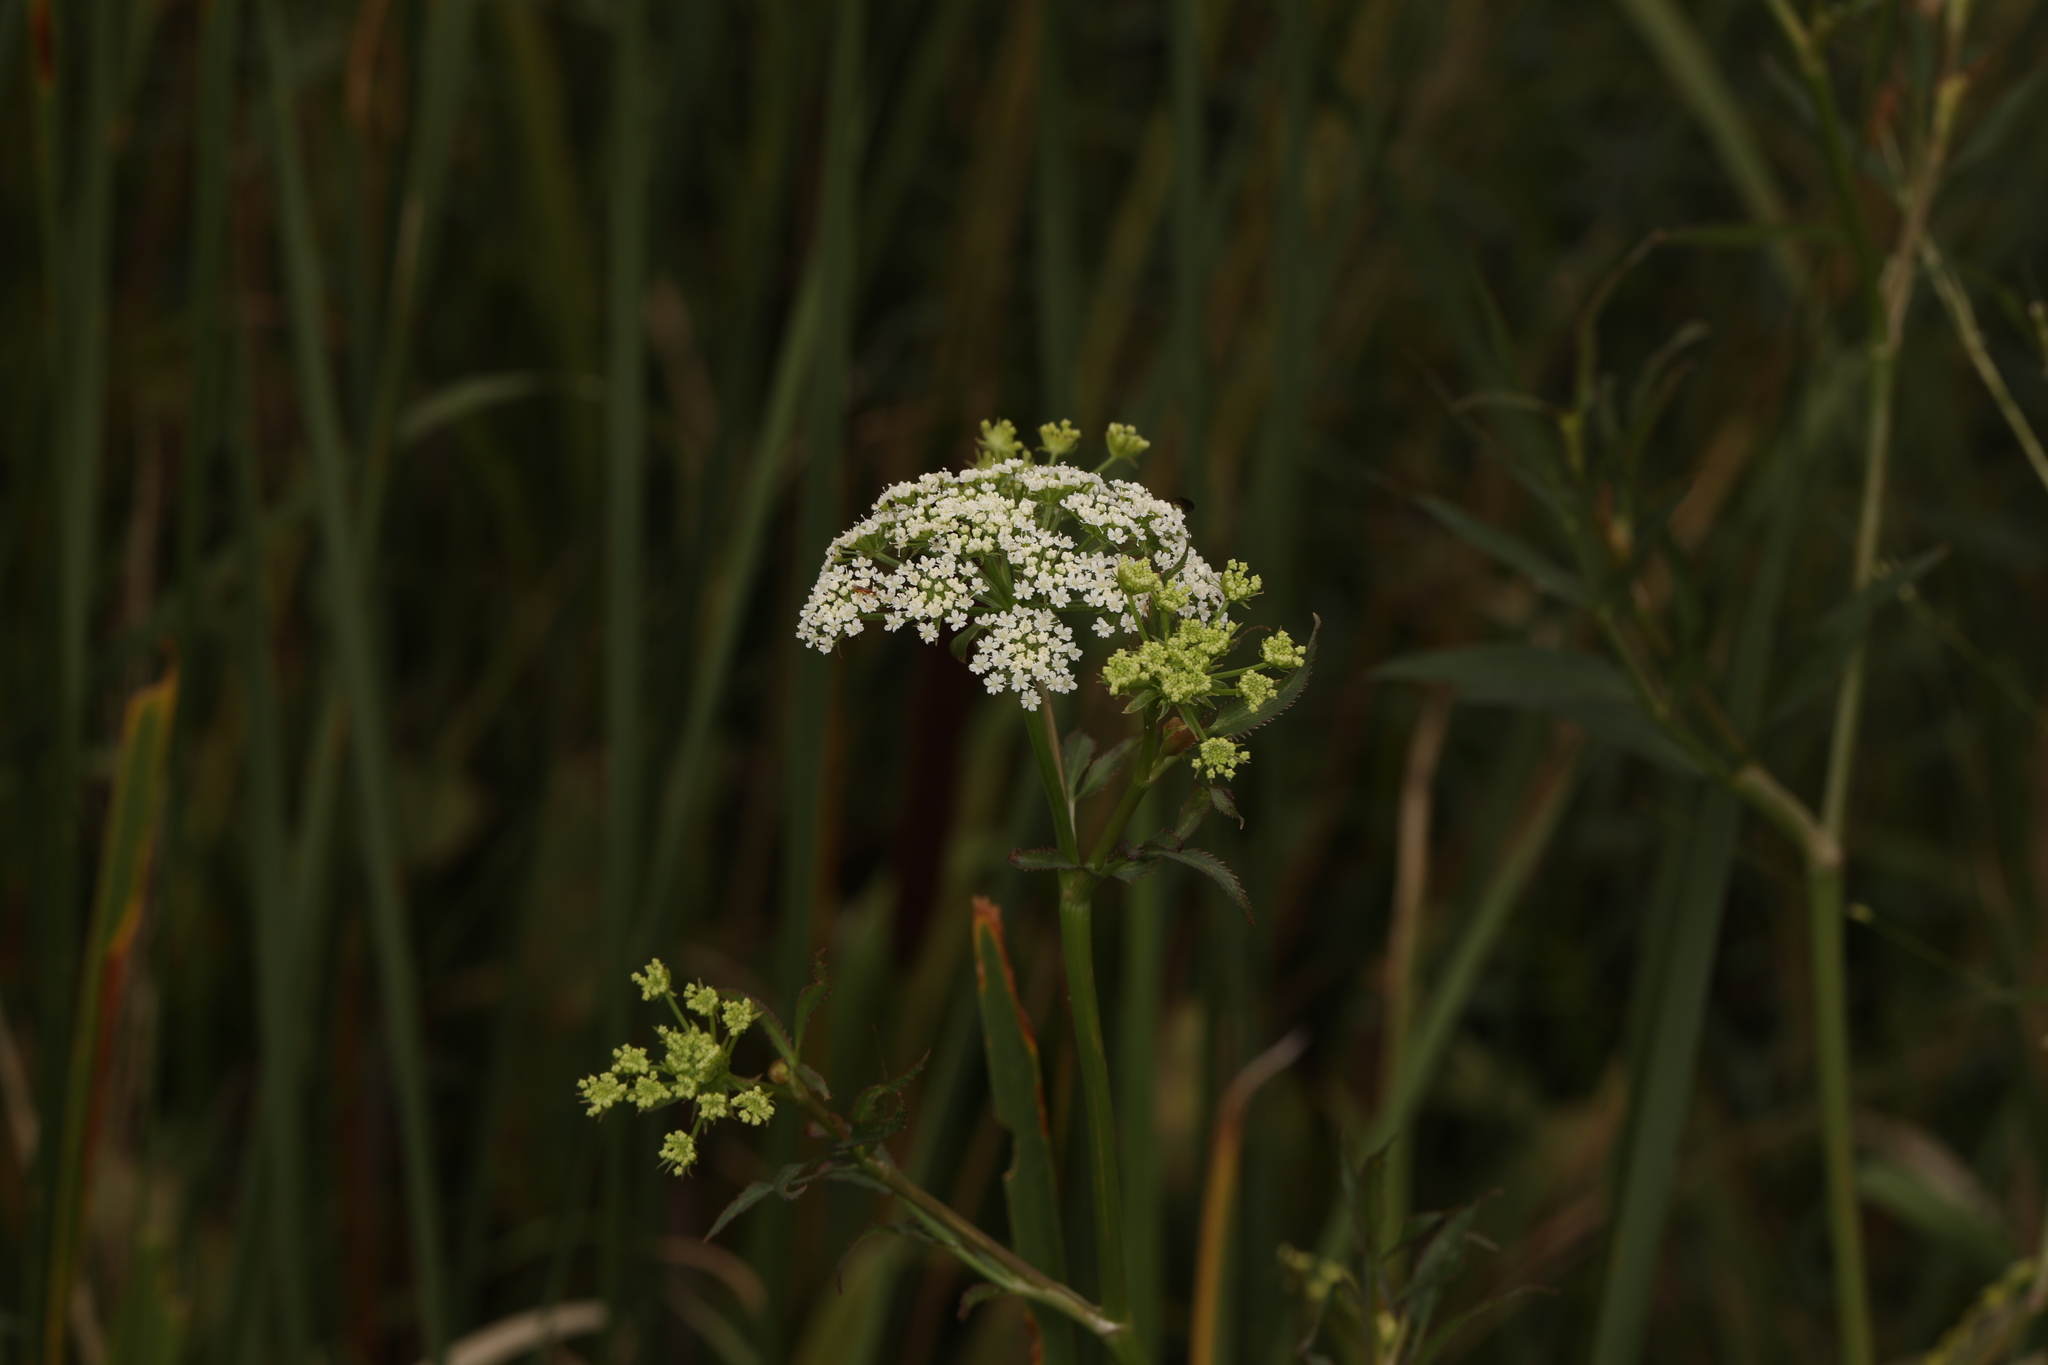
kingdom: Plantae
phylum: Tracheophyta
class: Magnoliopsida
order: Apiales
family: Apiaceae
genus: Cicuta
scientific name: Cicuta maculata
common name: Spotted cowbane
